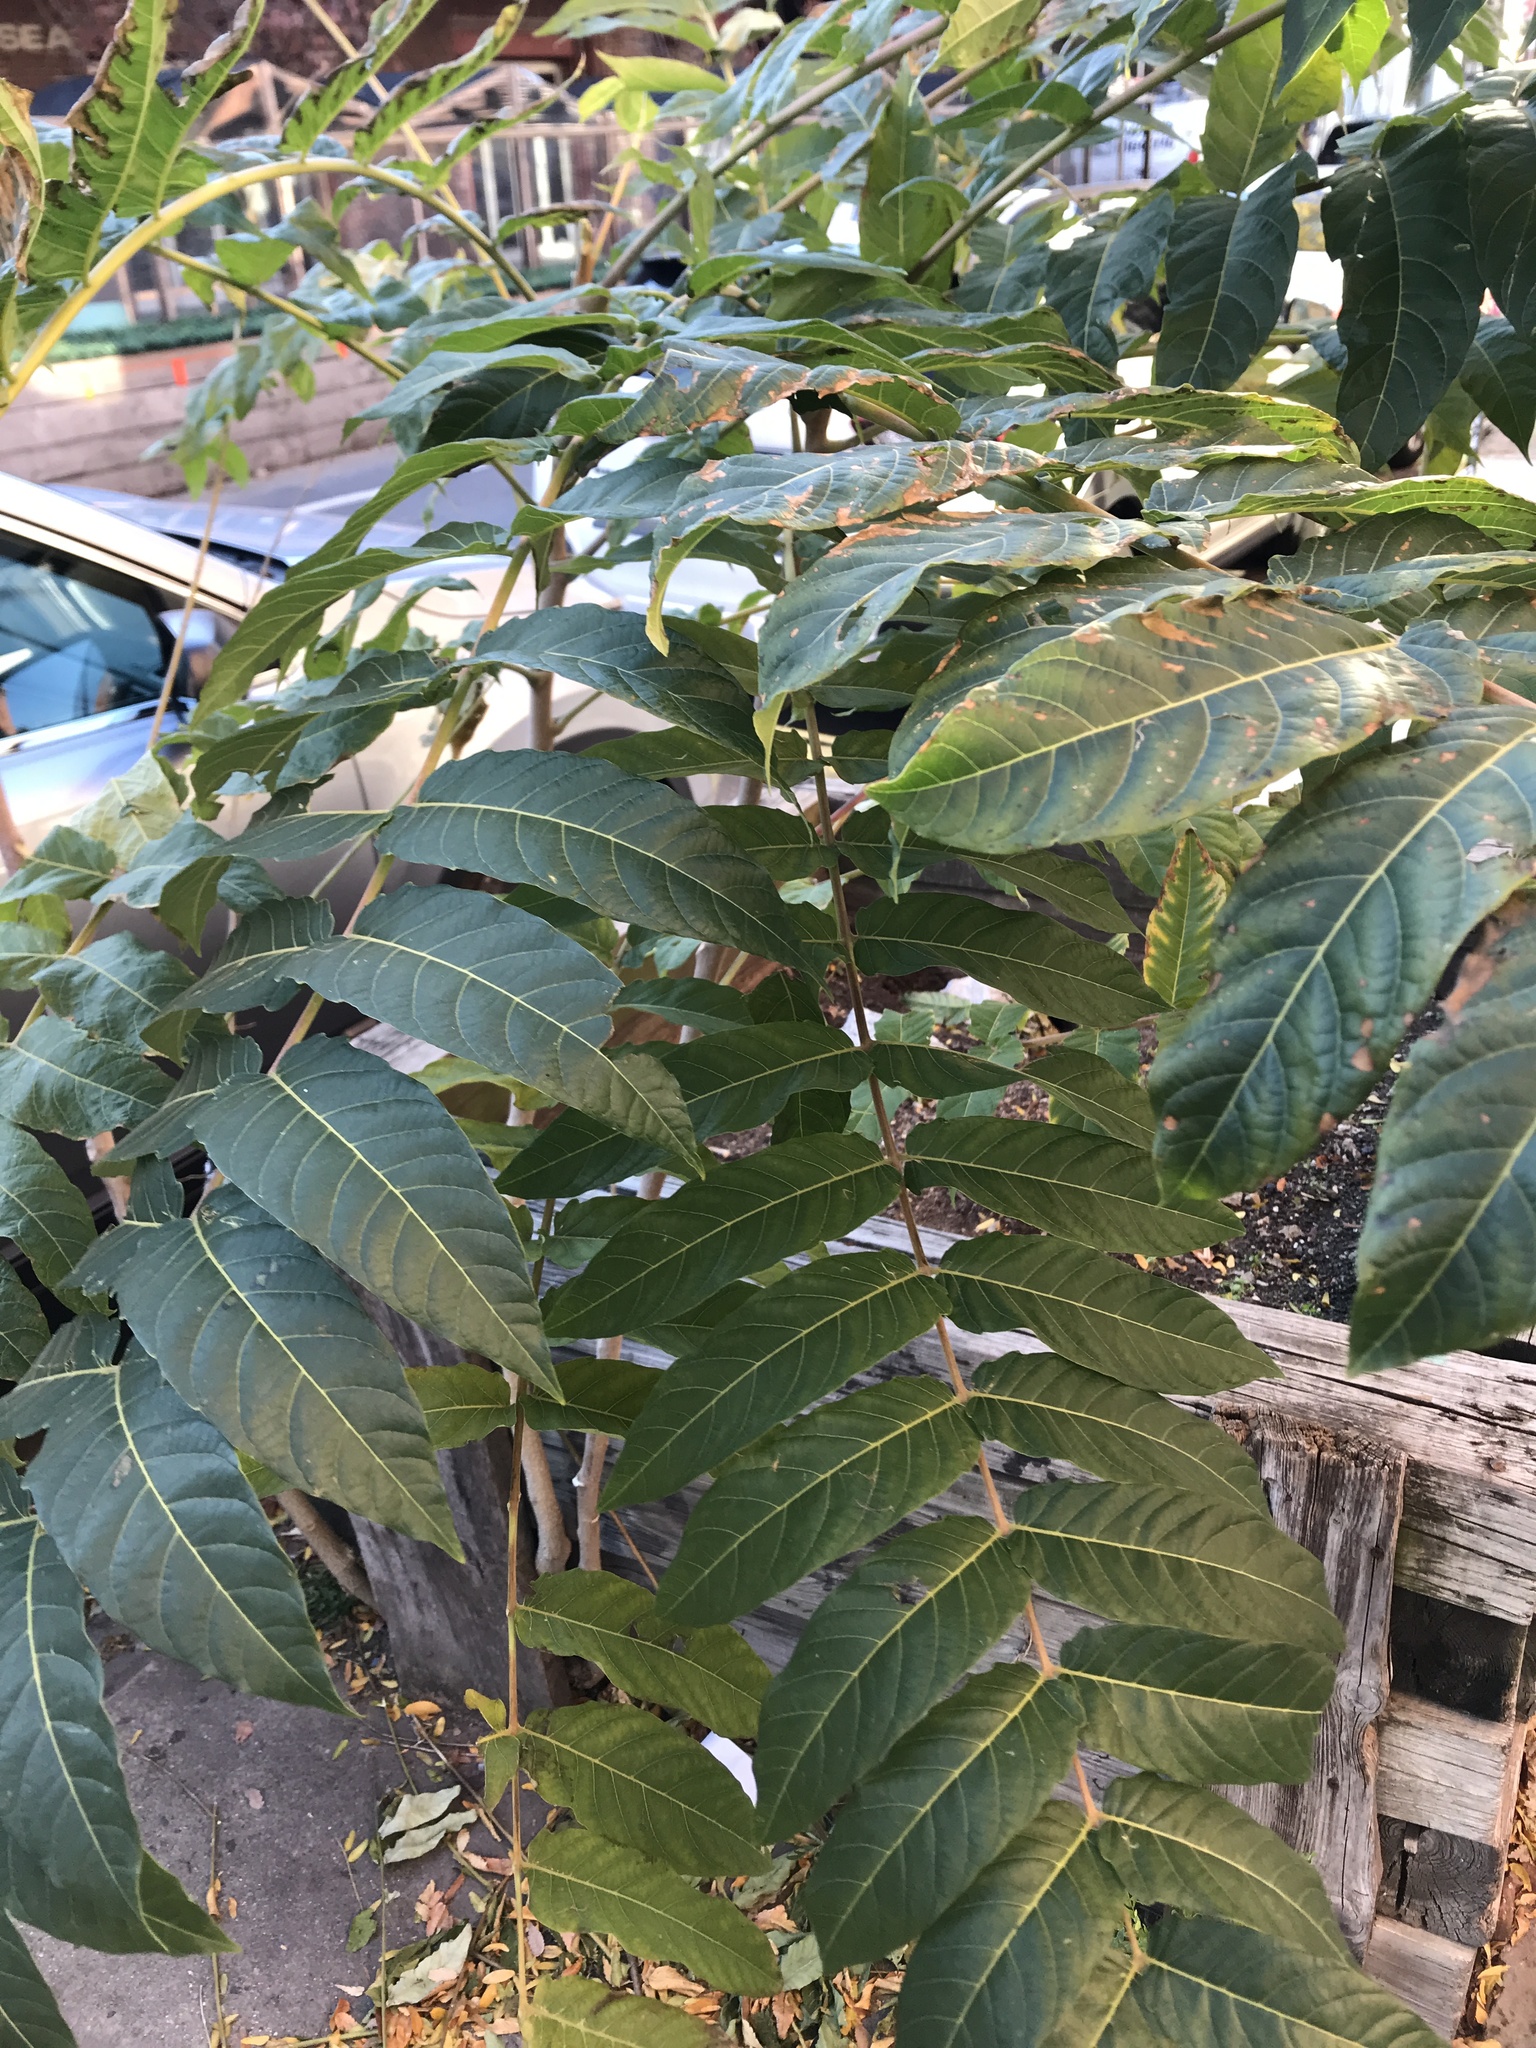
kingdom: Plantae
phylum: Tracheophyta
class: Magnoliopsida
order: Sapindales
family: Simaroubaceae
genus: Ailanthus
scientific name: Ailanthus altissima
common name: Tree-of-heaven
